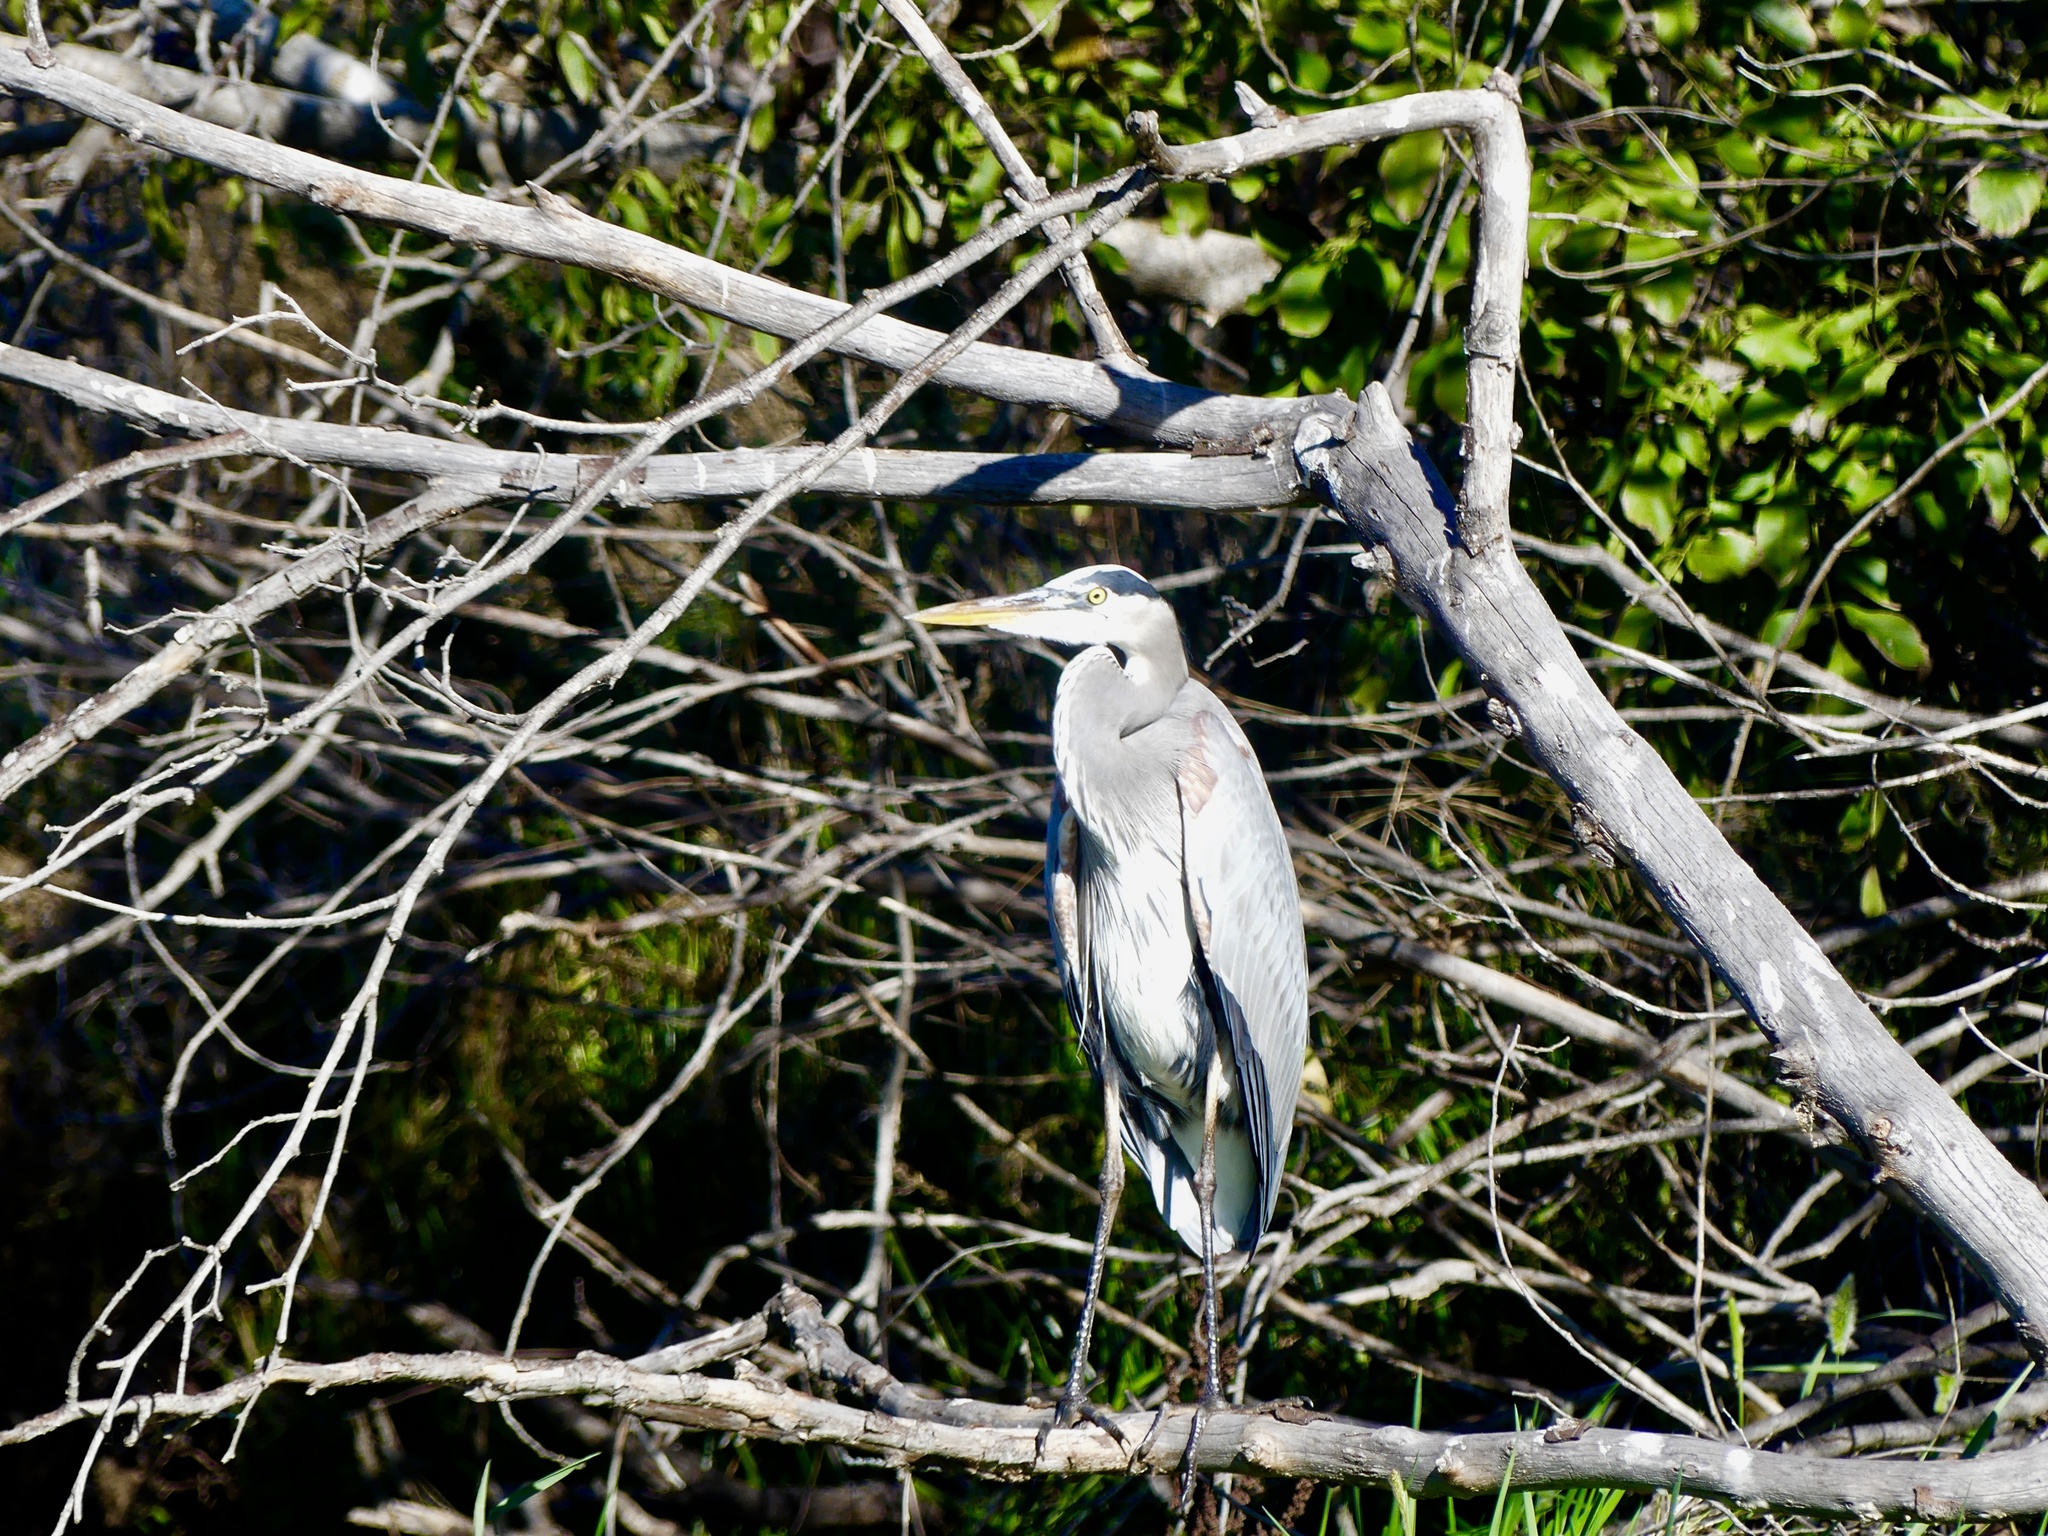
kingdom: Animalia
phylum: Chordata
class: Aves
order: Pelecaniformes
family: Ardeidae
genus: Ardea
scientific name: Ardea herodias
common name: Great blue heron
